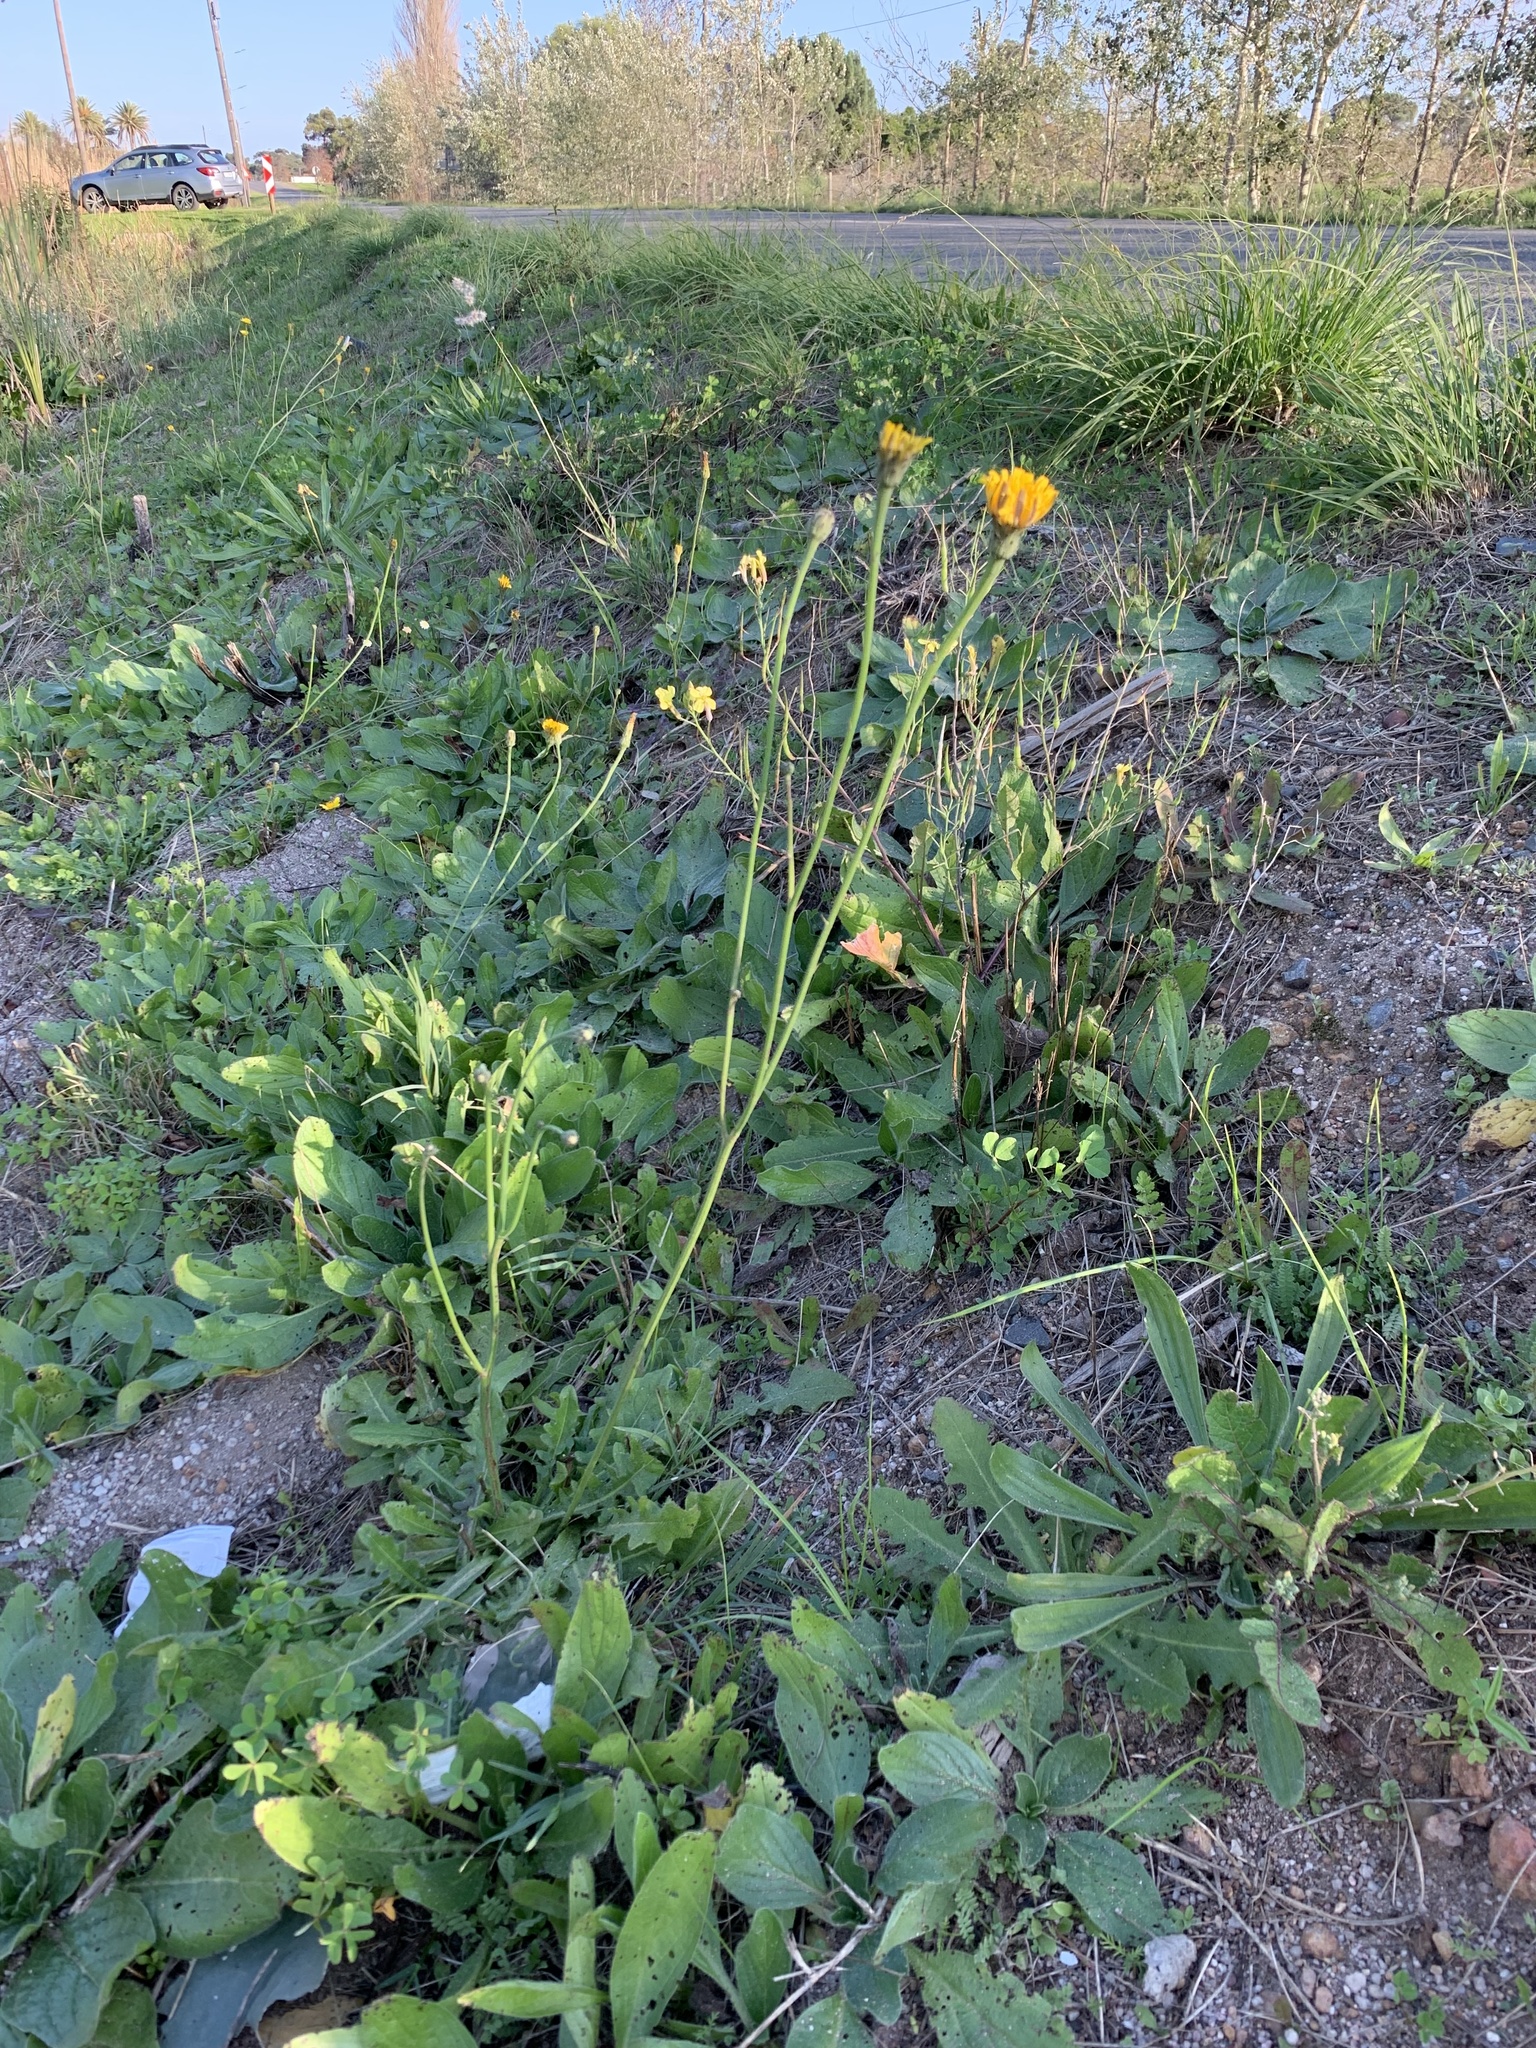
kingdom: Plantae
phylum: Tracheophyta
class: Magnoliopsida
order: Asterales
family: Asteraceae
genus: Hypochaeris
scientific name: Hypochaeris radicata
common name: Flatweed
